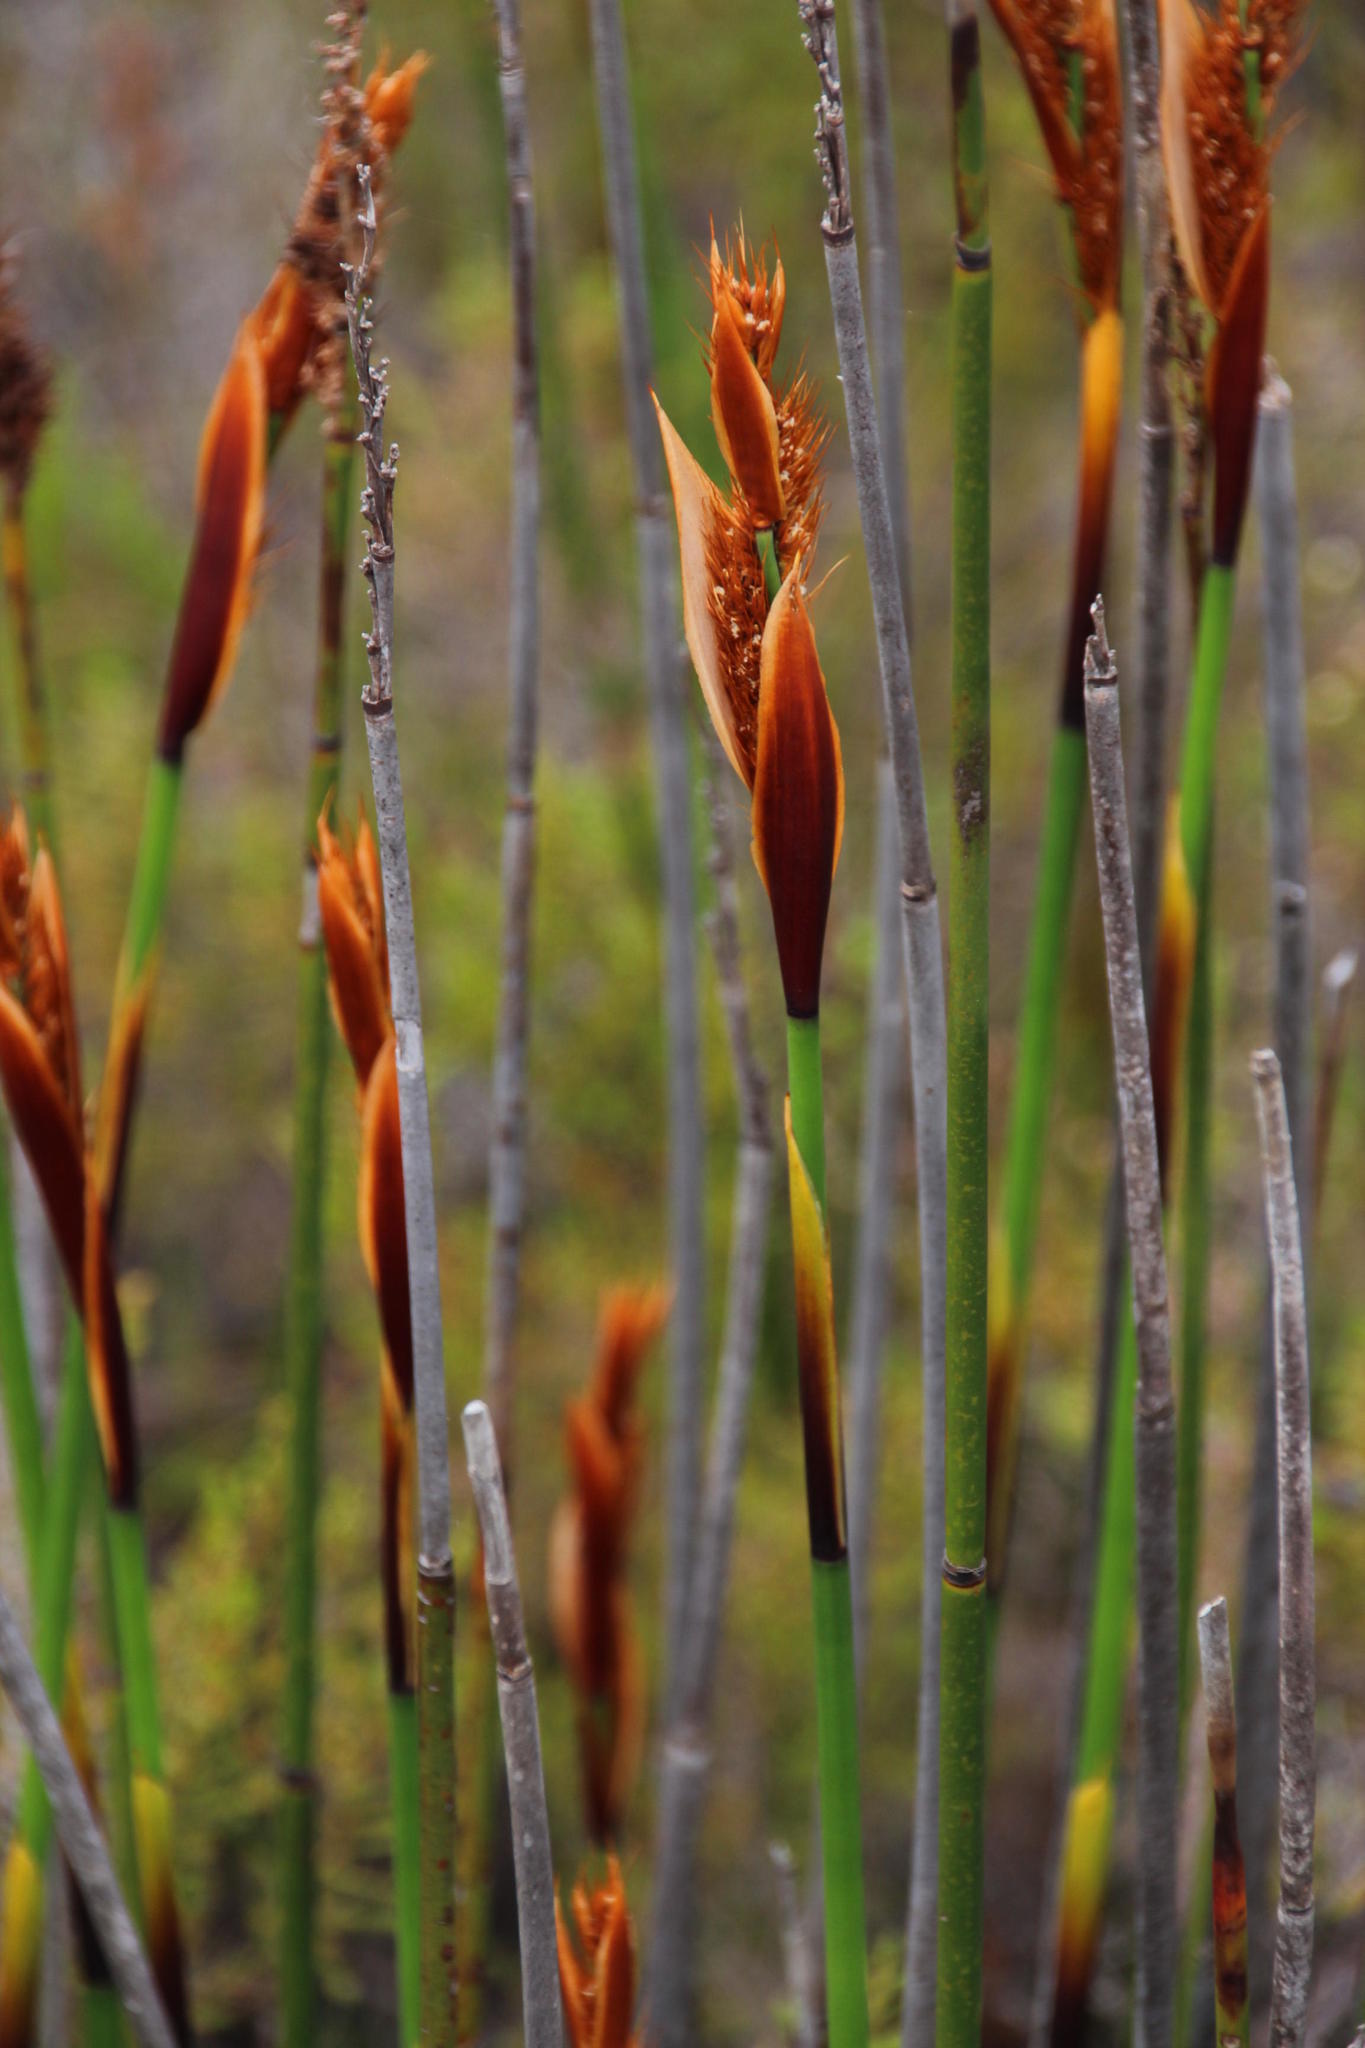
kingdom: Plantae
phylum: Tracheophyta
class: Liliopsida
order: Poales
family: Restionaceae
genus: Elegia
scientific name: Elegia cuspidata
